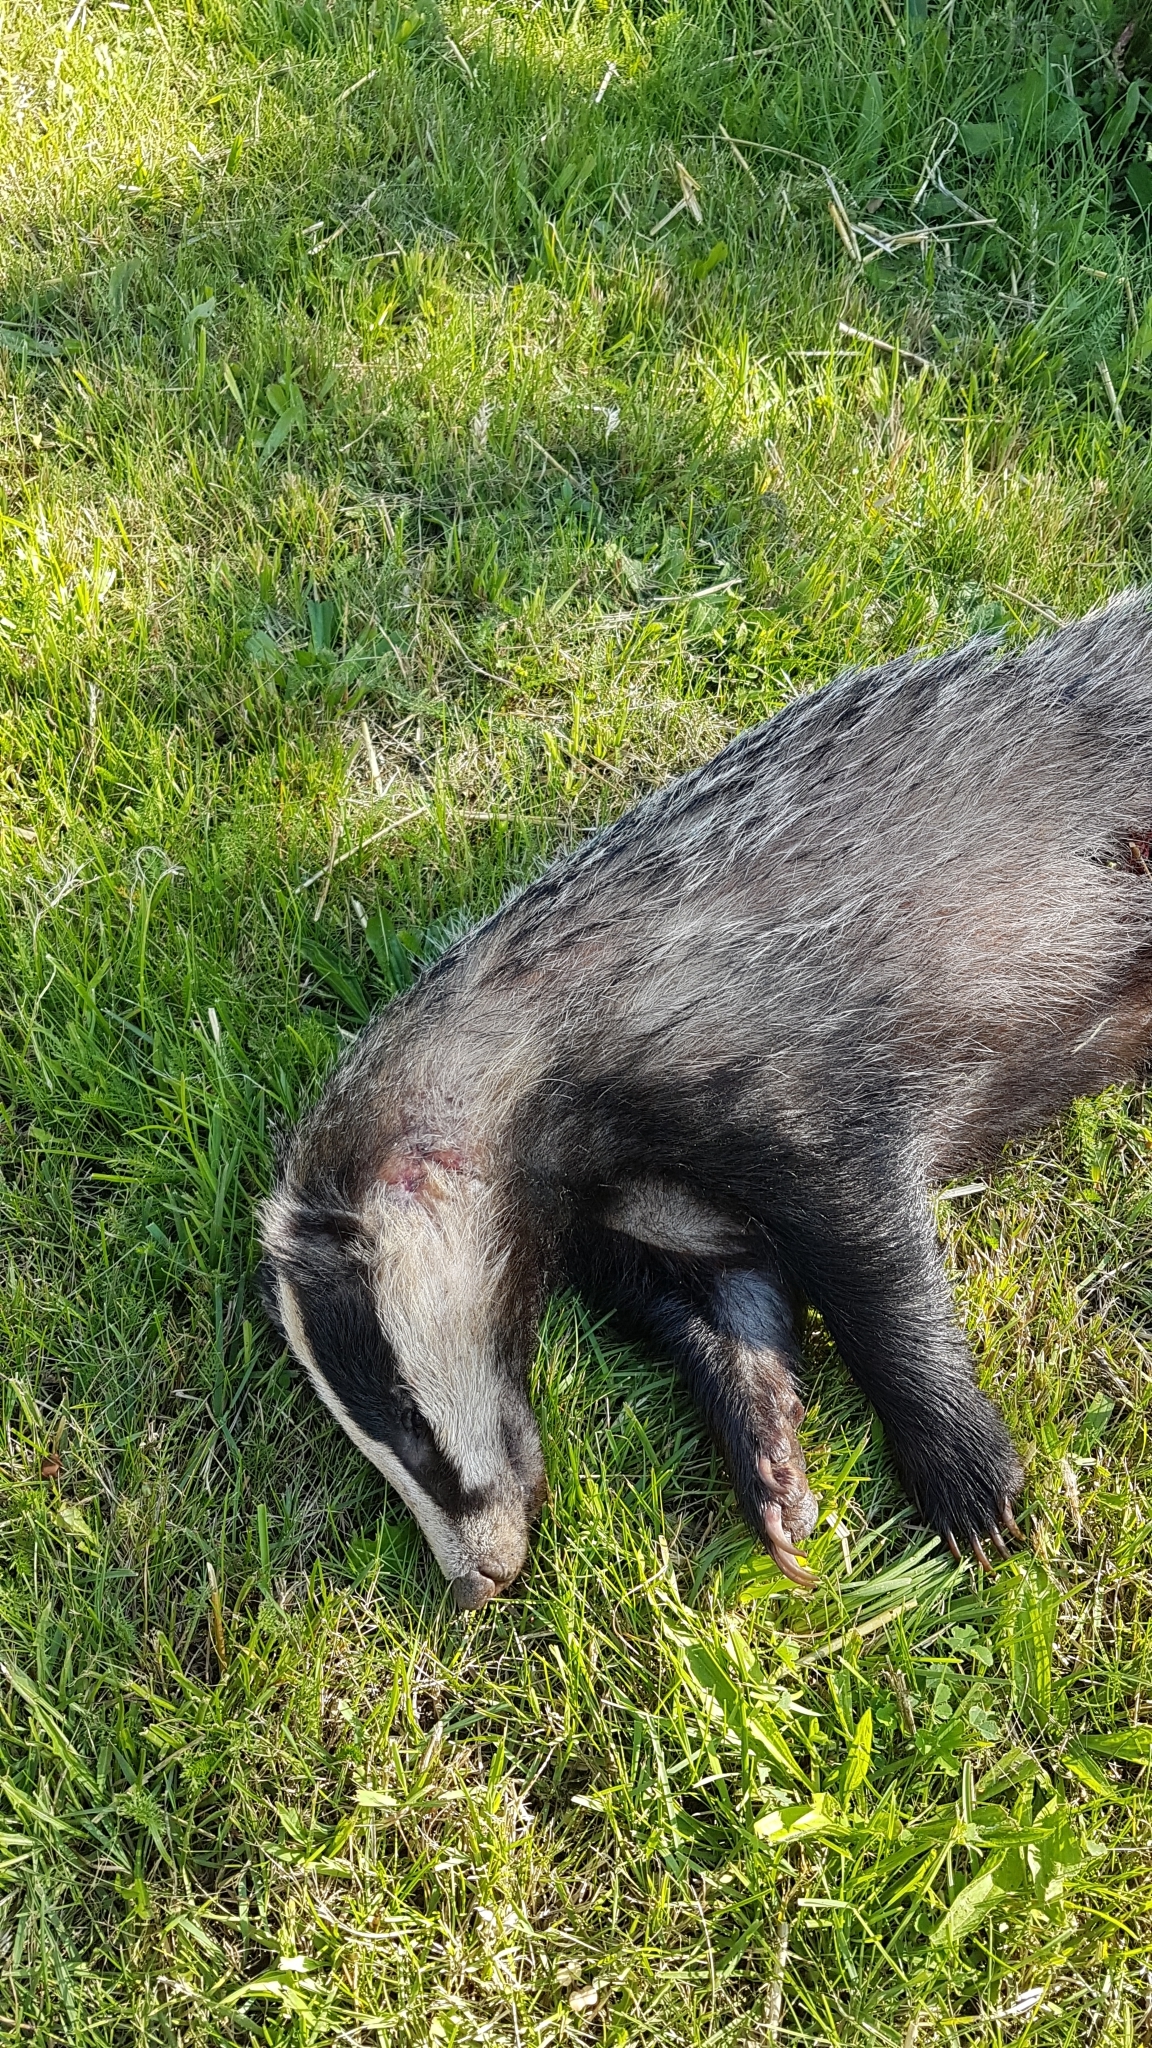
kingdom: Animalia
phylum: Chordata
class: Mammalia
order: Carnivora
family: Mustelidae
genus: Meles
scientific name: Meles meles
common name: Eurasian badger
